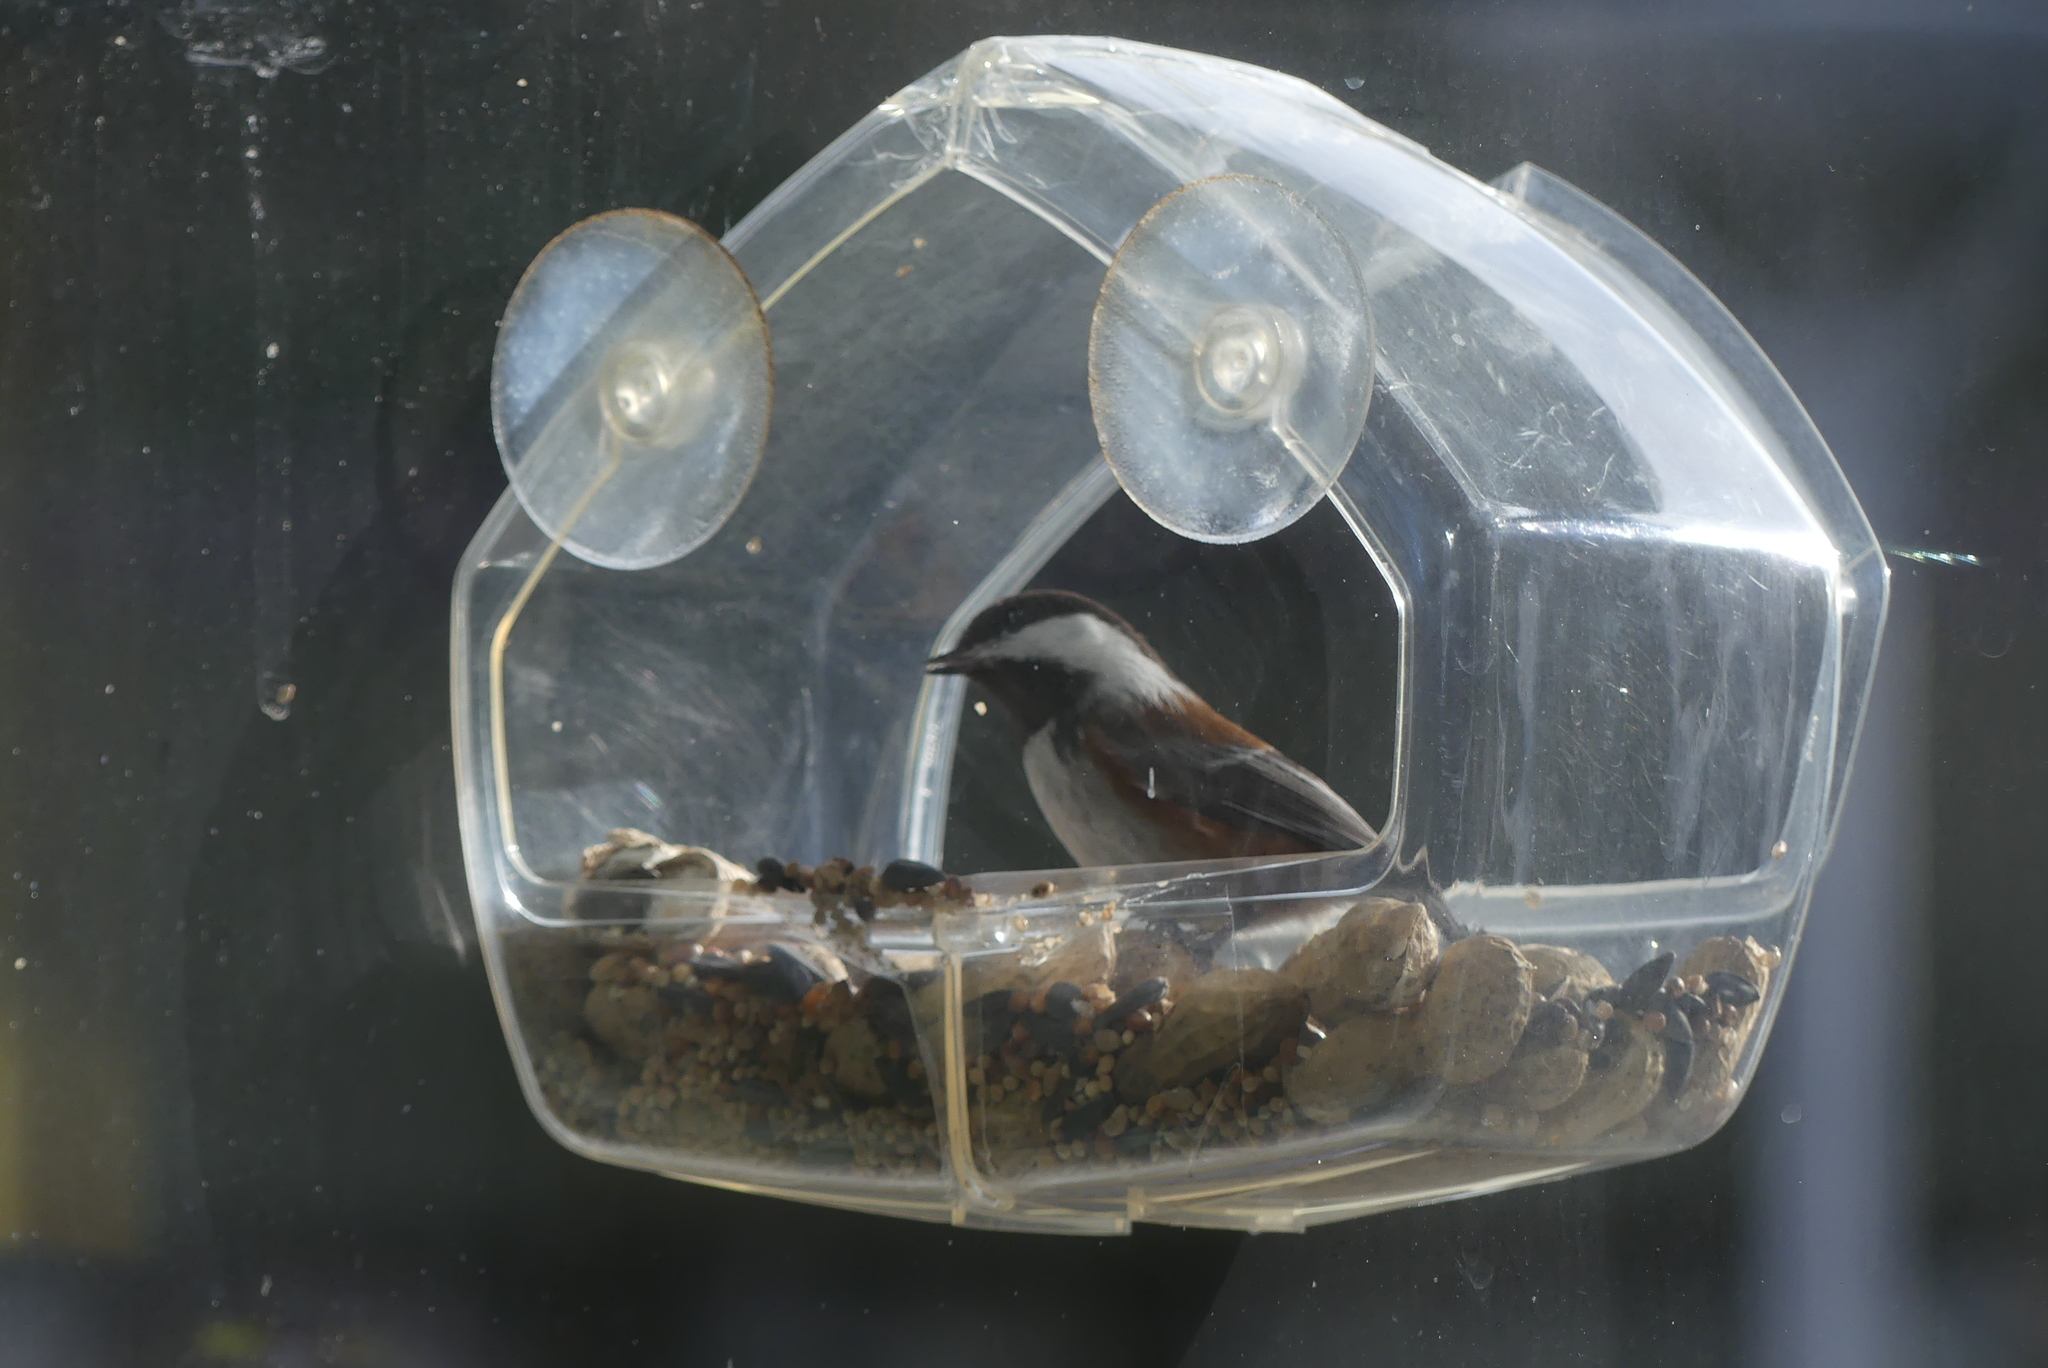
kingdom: Animalia
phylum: Chordata
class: Aves
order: Passeriformes
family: Paridae
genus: Poecile
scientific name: Poecile rufescens
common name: Chestnut-backed chickadee
